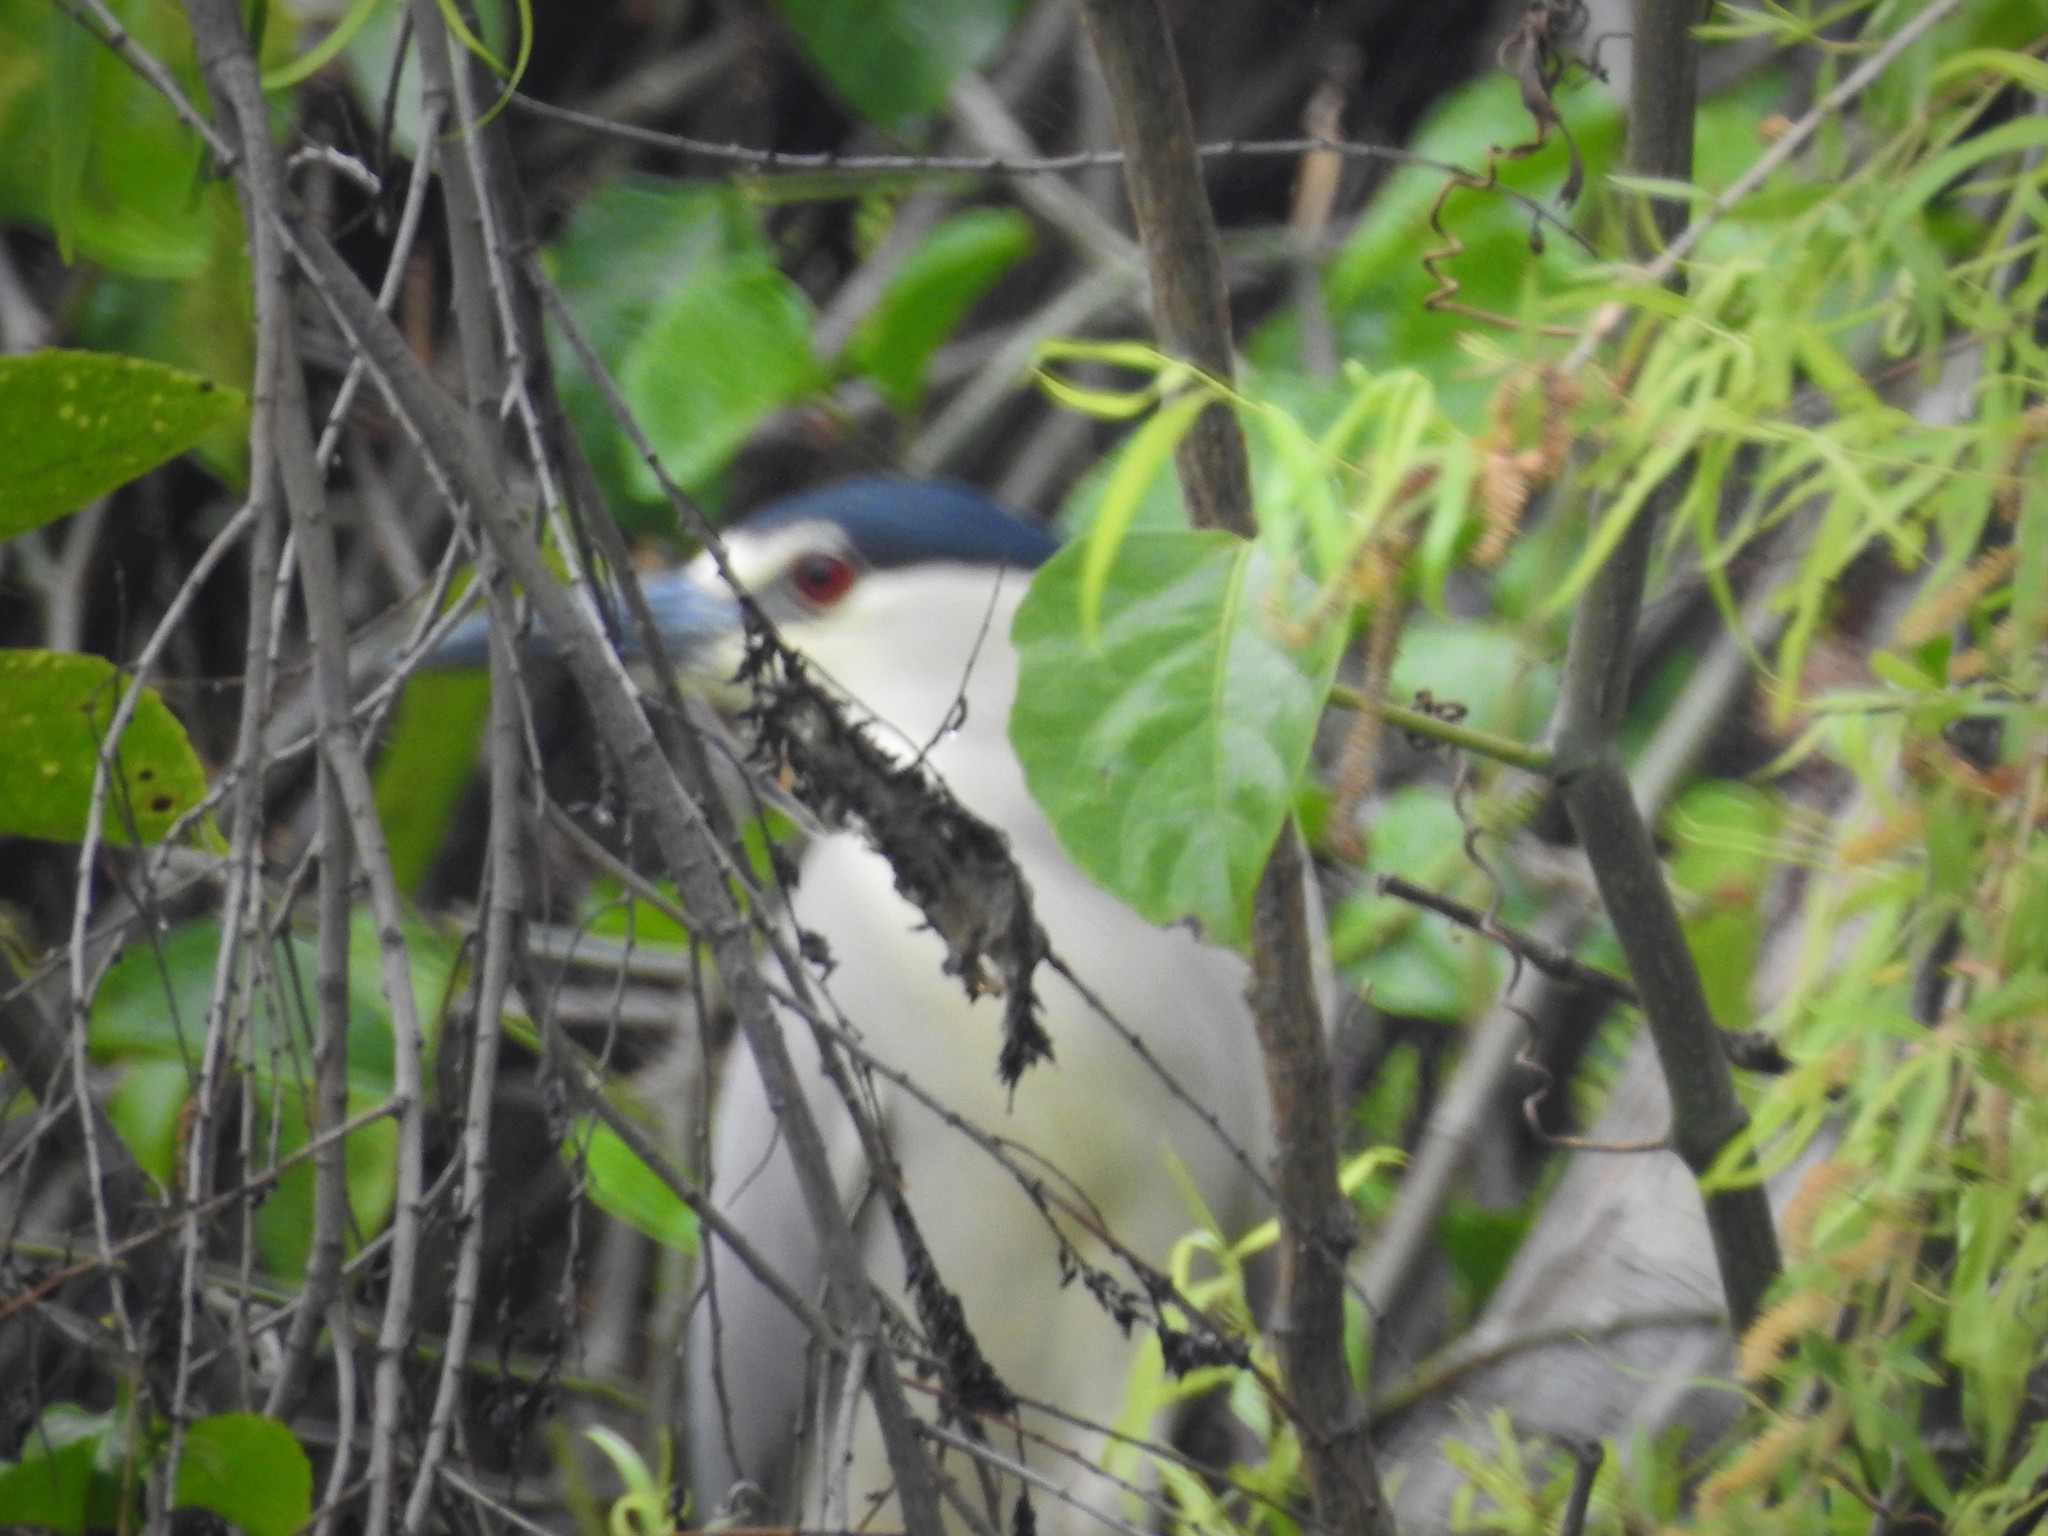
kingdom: Animalia
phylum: Chordata
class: Aves
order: Pelecaniformes
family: Ardeidae
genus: Nycticorax
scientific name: Nycticorax nycticorax
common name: Black-crowned night heron
